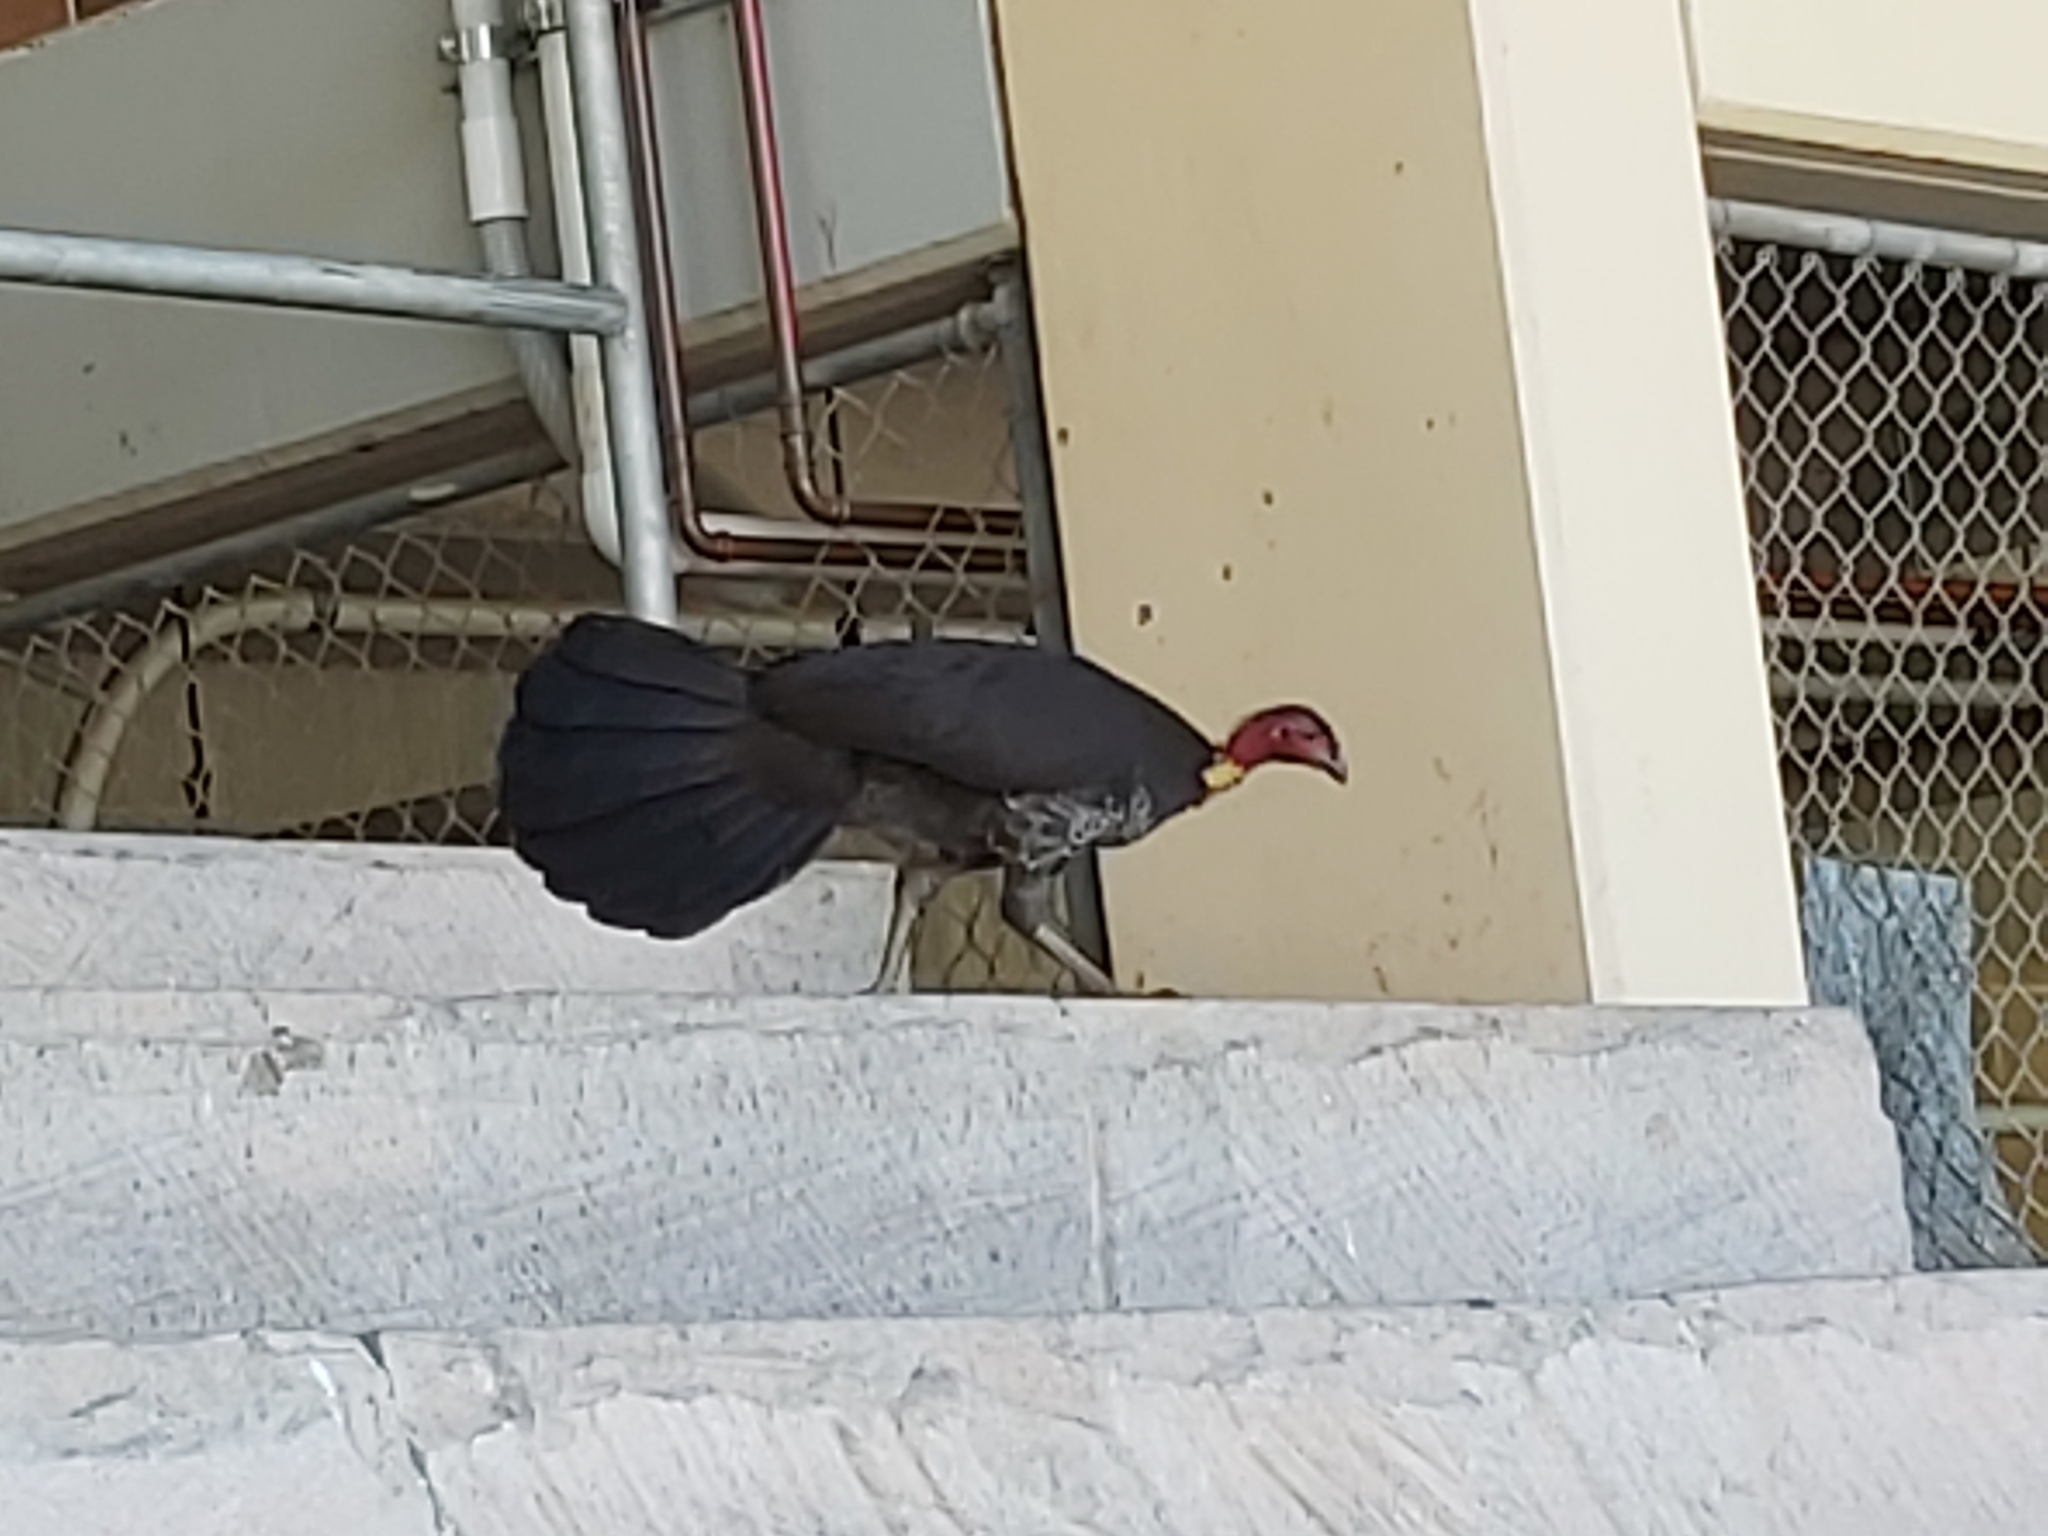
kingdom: Animalia
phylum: Chordata
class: Aves
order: Galliformes
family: Megapodiidae
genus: Alectura
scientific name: Alectura lathami
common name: Australian brushturkey
